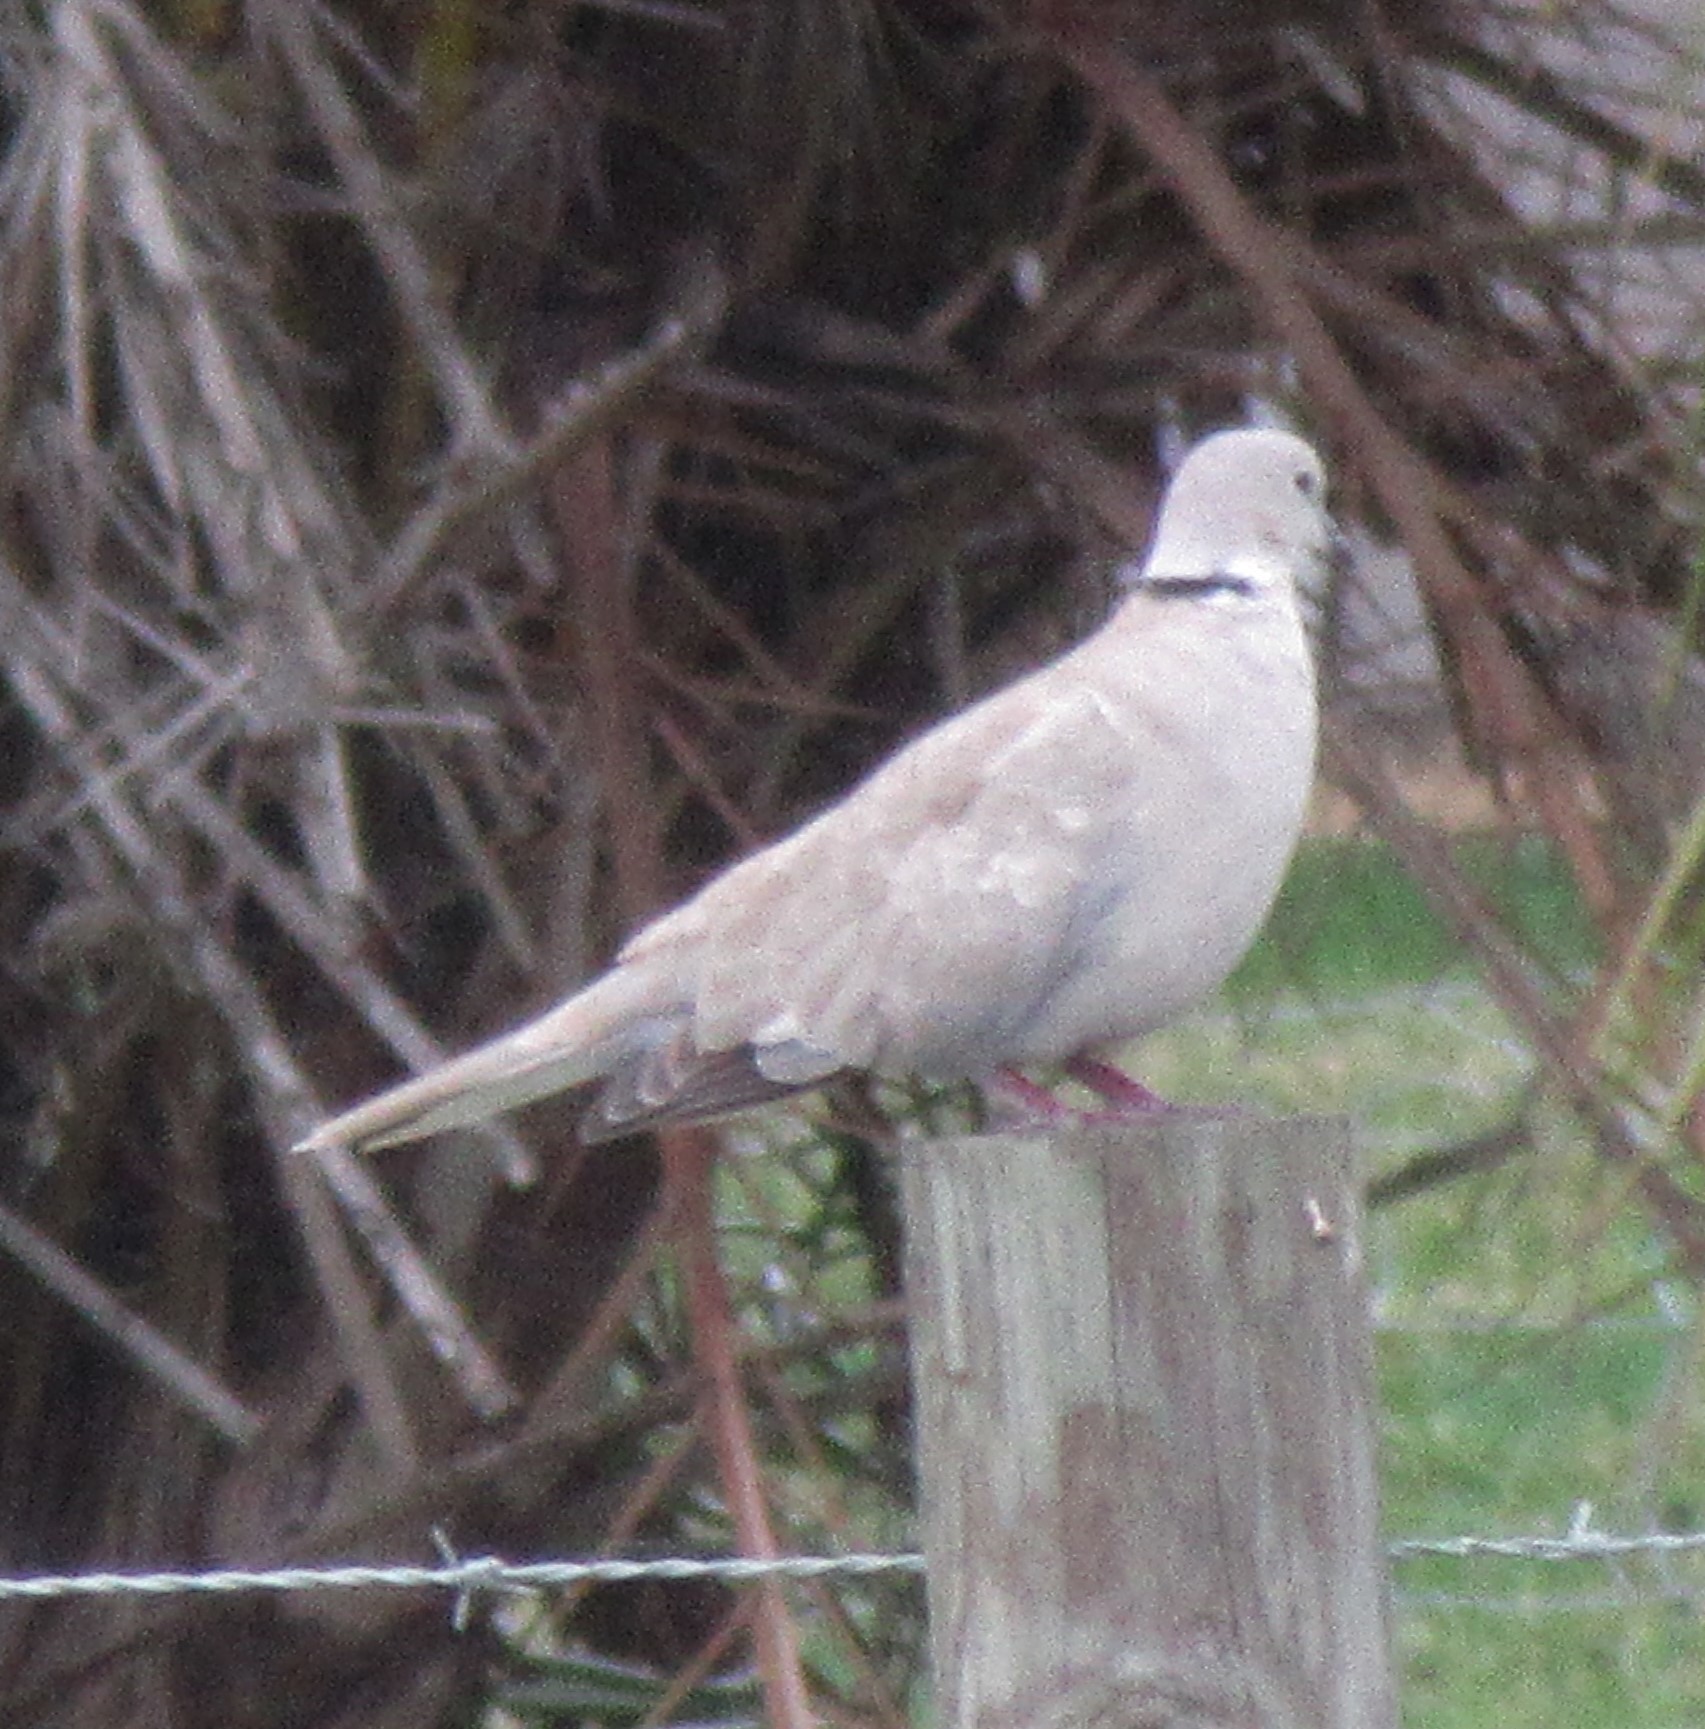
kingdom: Animalia
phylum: Chordata
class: Aves
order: Columbiformes
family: Columbidae
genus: Streptopelia
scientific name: Streptopelia decaocto
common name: Eurasian collared dove
